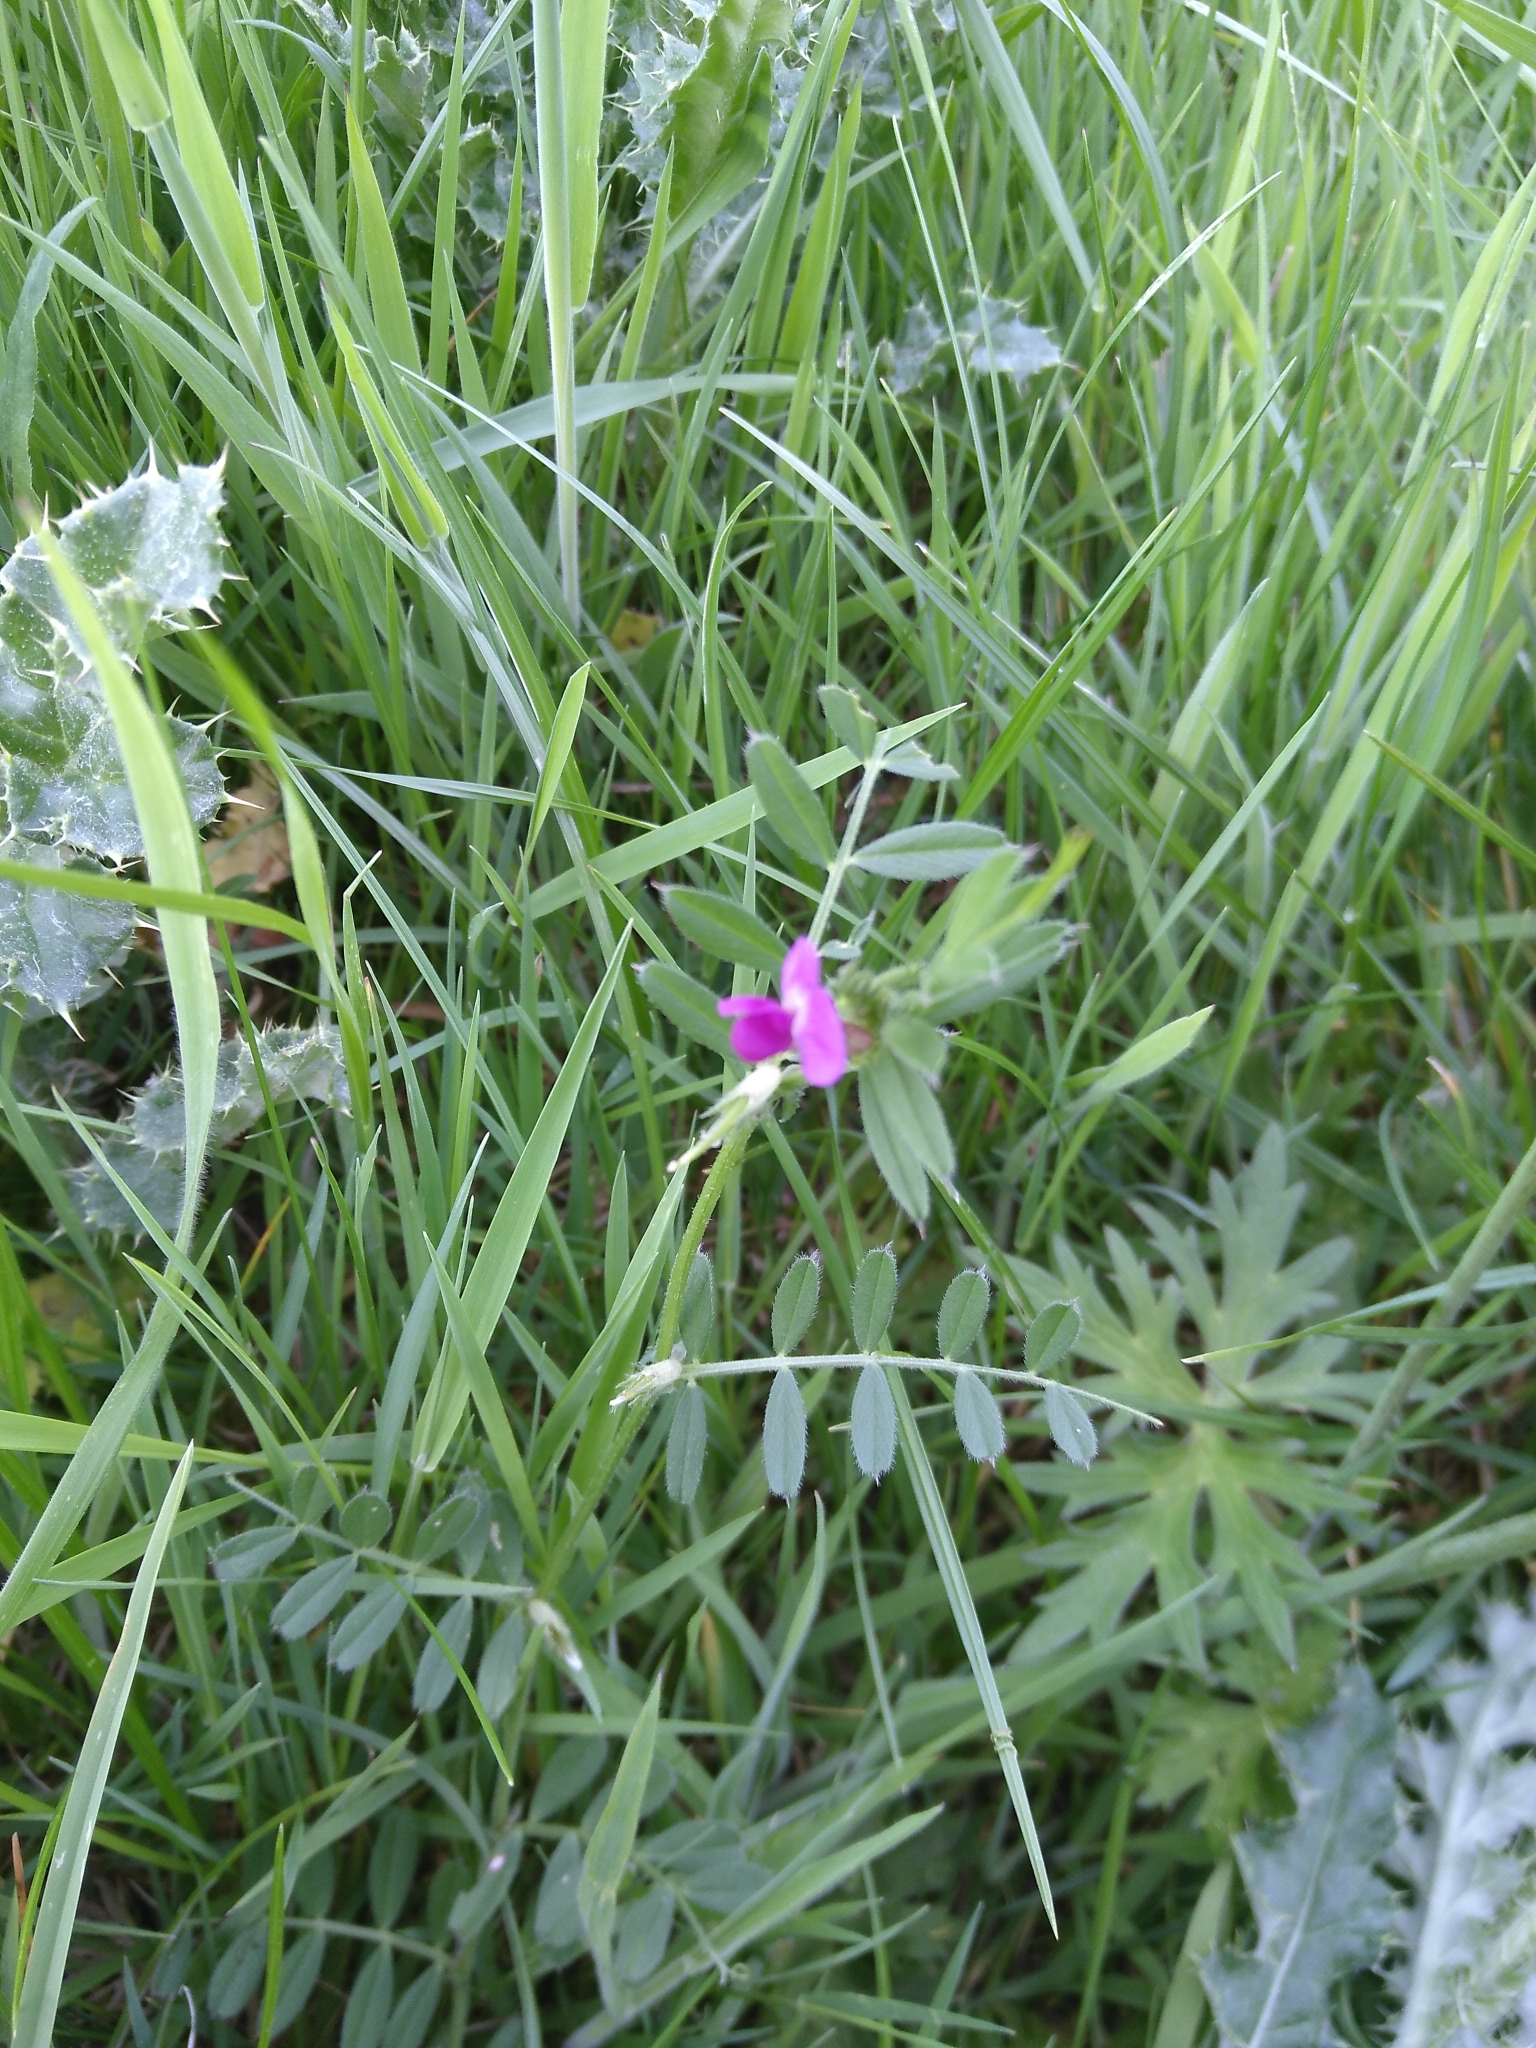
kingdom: Plantae
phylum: Tracheophyta
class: Magnoliopsida
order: Fabales
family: Fabaceae
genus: Vicia
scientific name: Vicia sativa
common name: Garden vetch
